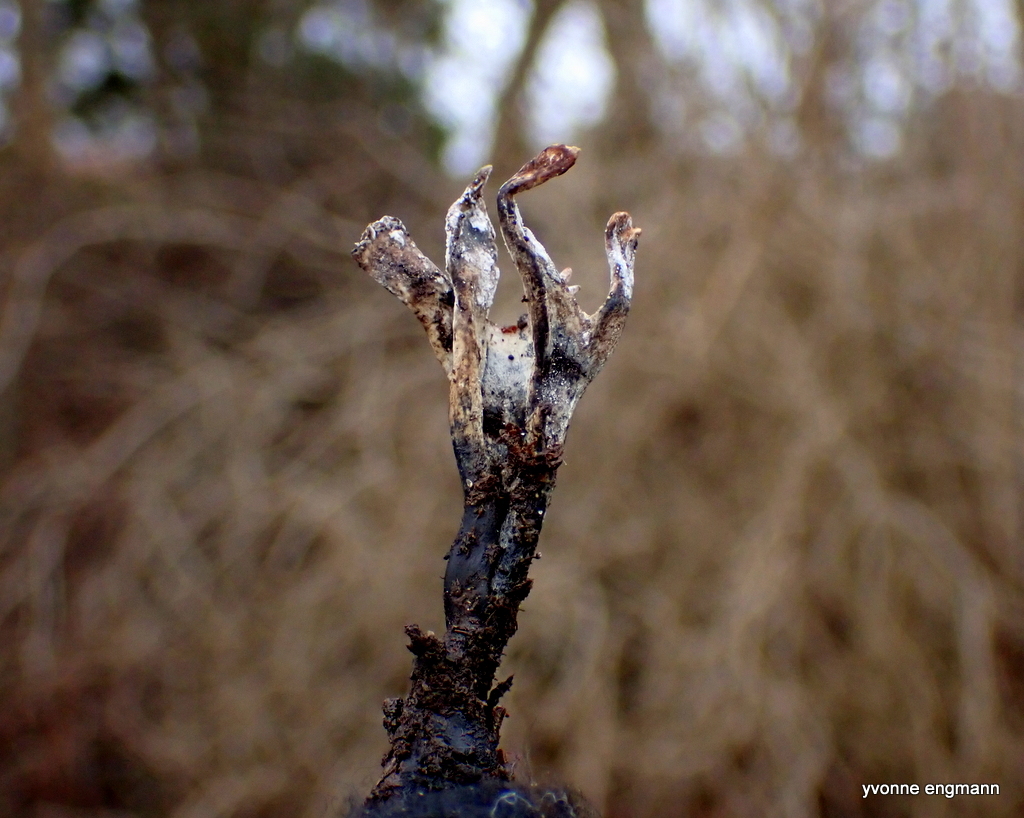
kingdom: Fungi
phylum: Ascomycota
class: Sordariomycetes
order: Xylariales
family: Xylariaceae
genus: Xylaria
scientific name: Xylaria hypoxylon
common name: Candle-snuff fungus
